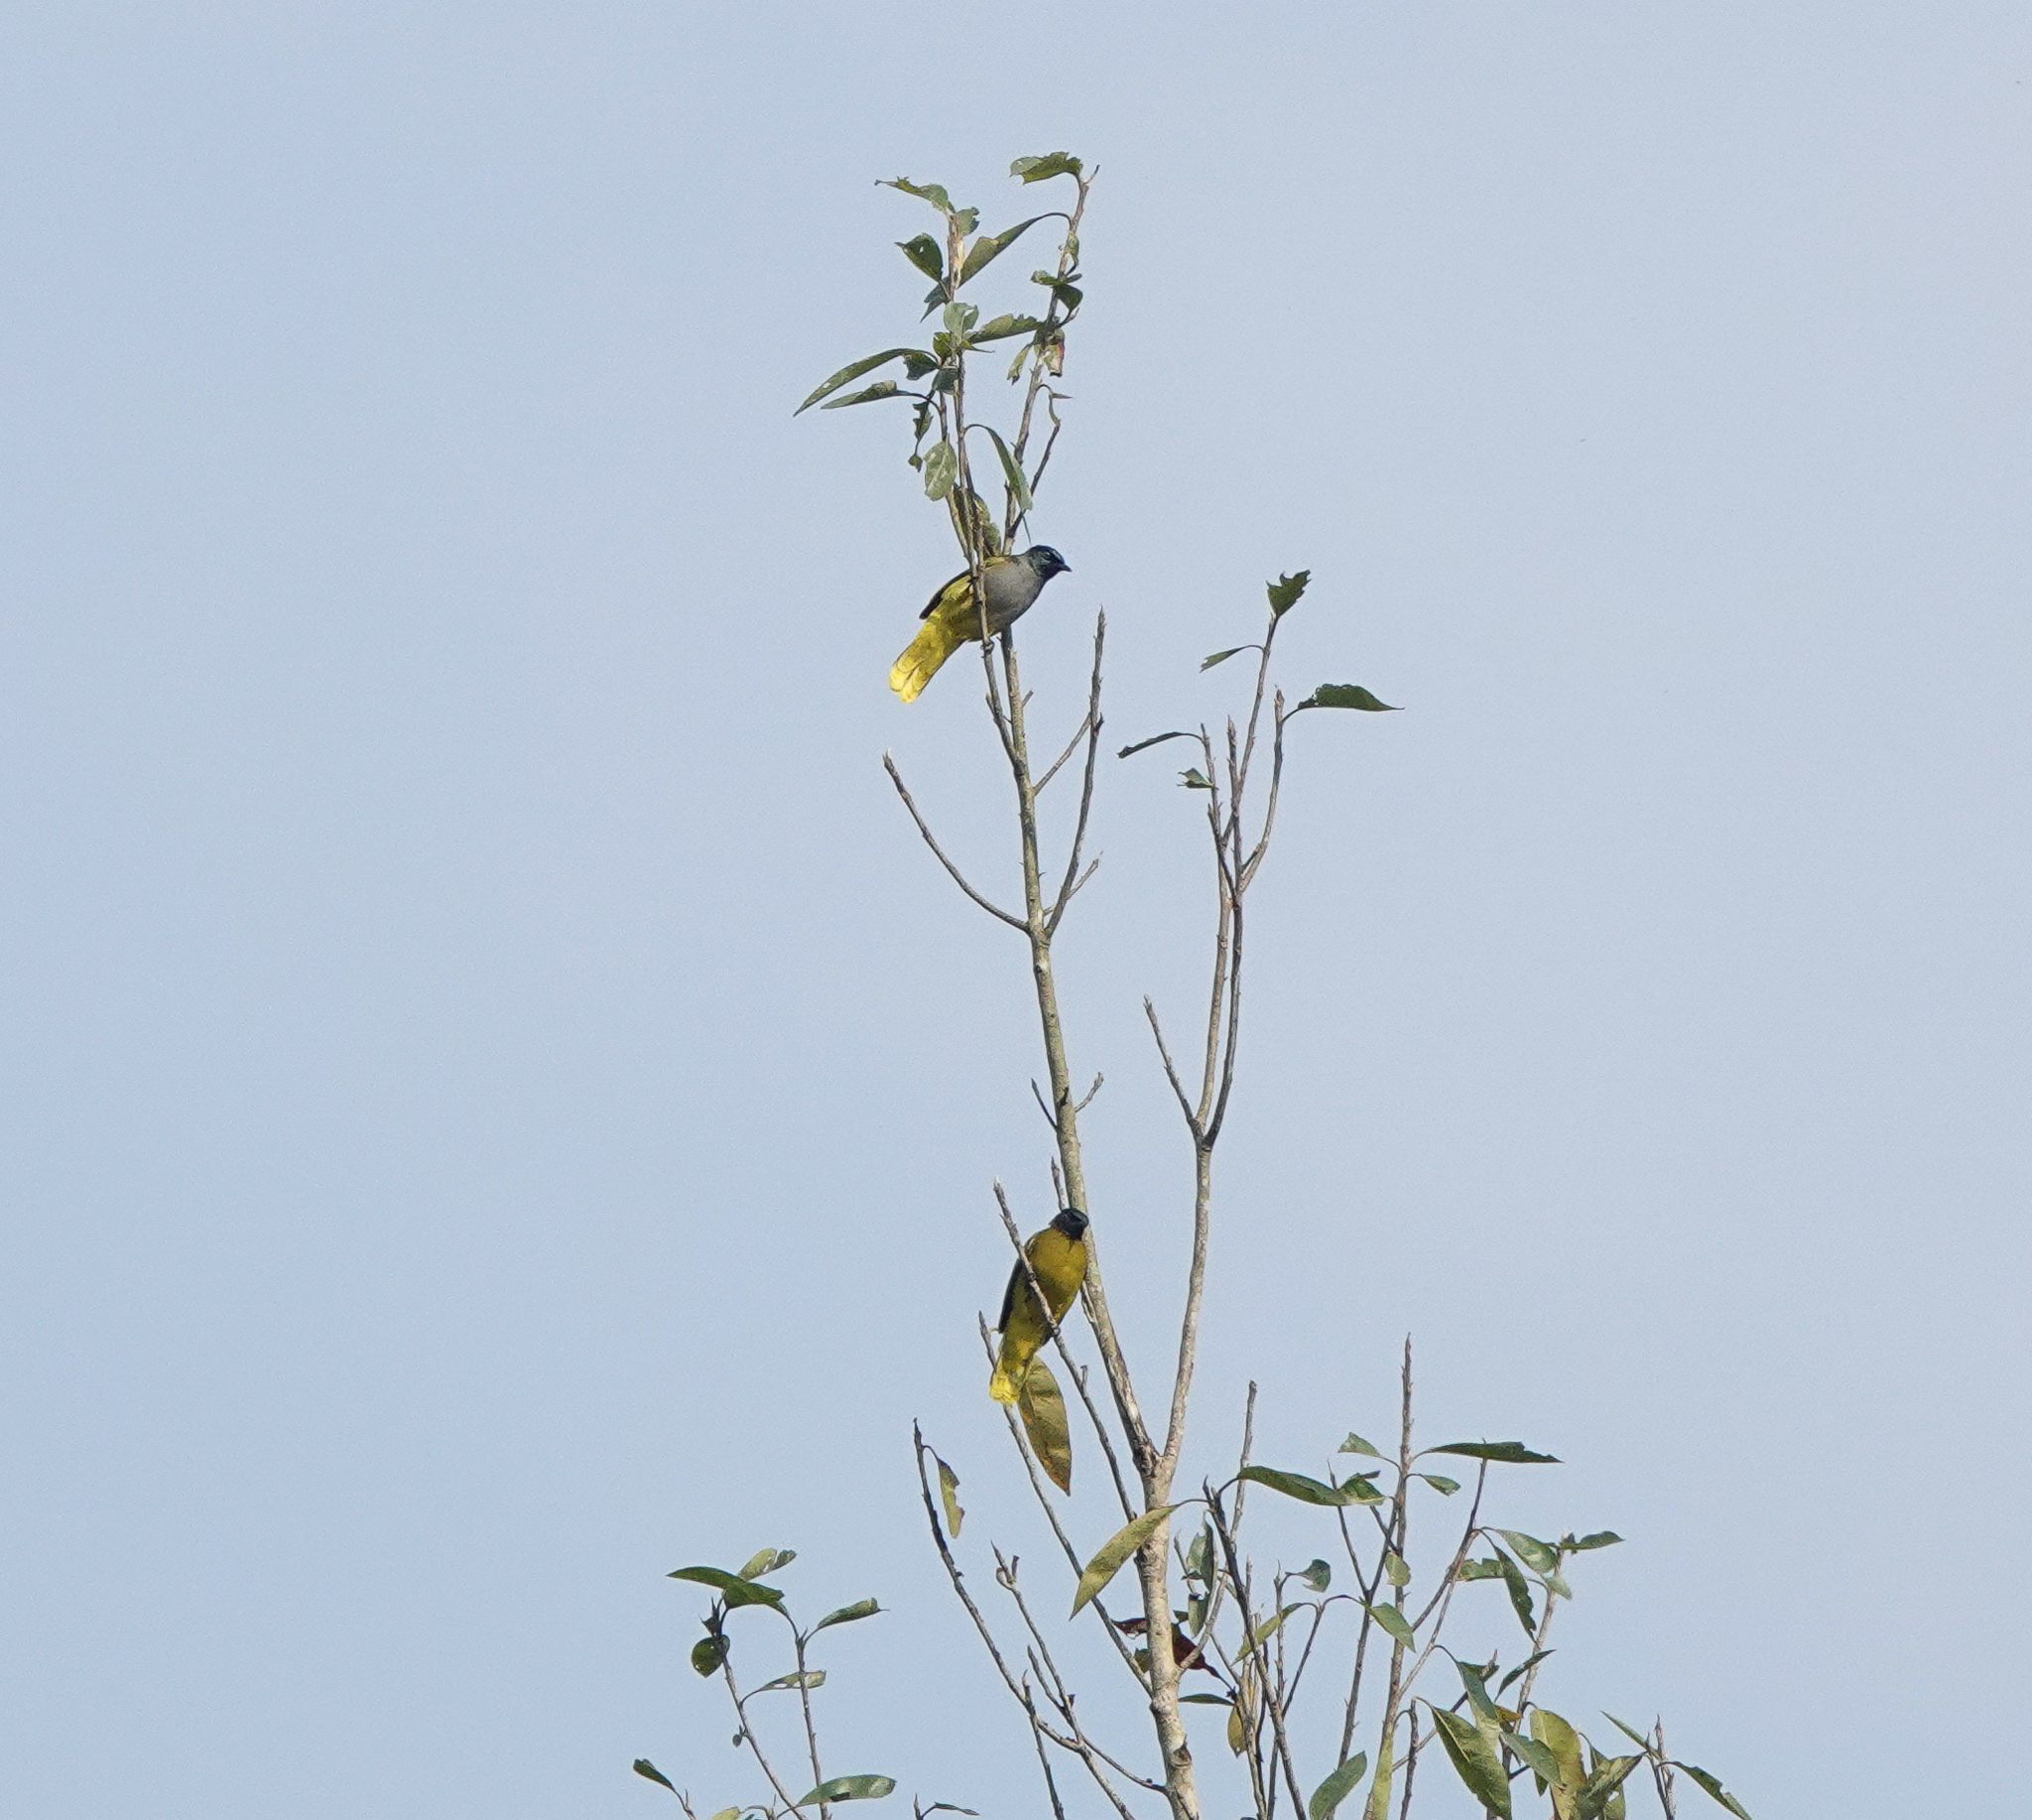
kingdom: Animalia
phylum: Chordata
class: Aves
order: Passeriformes
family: Pycnonotidae
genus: Microtarsus
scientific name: Microtarsus
